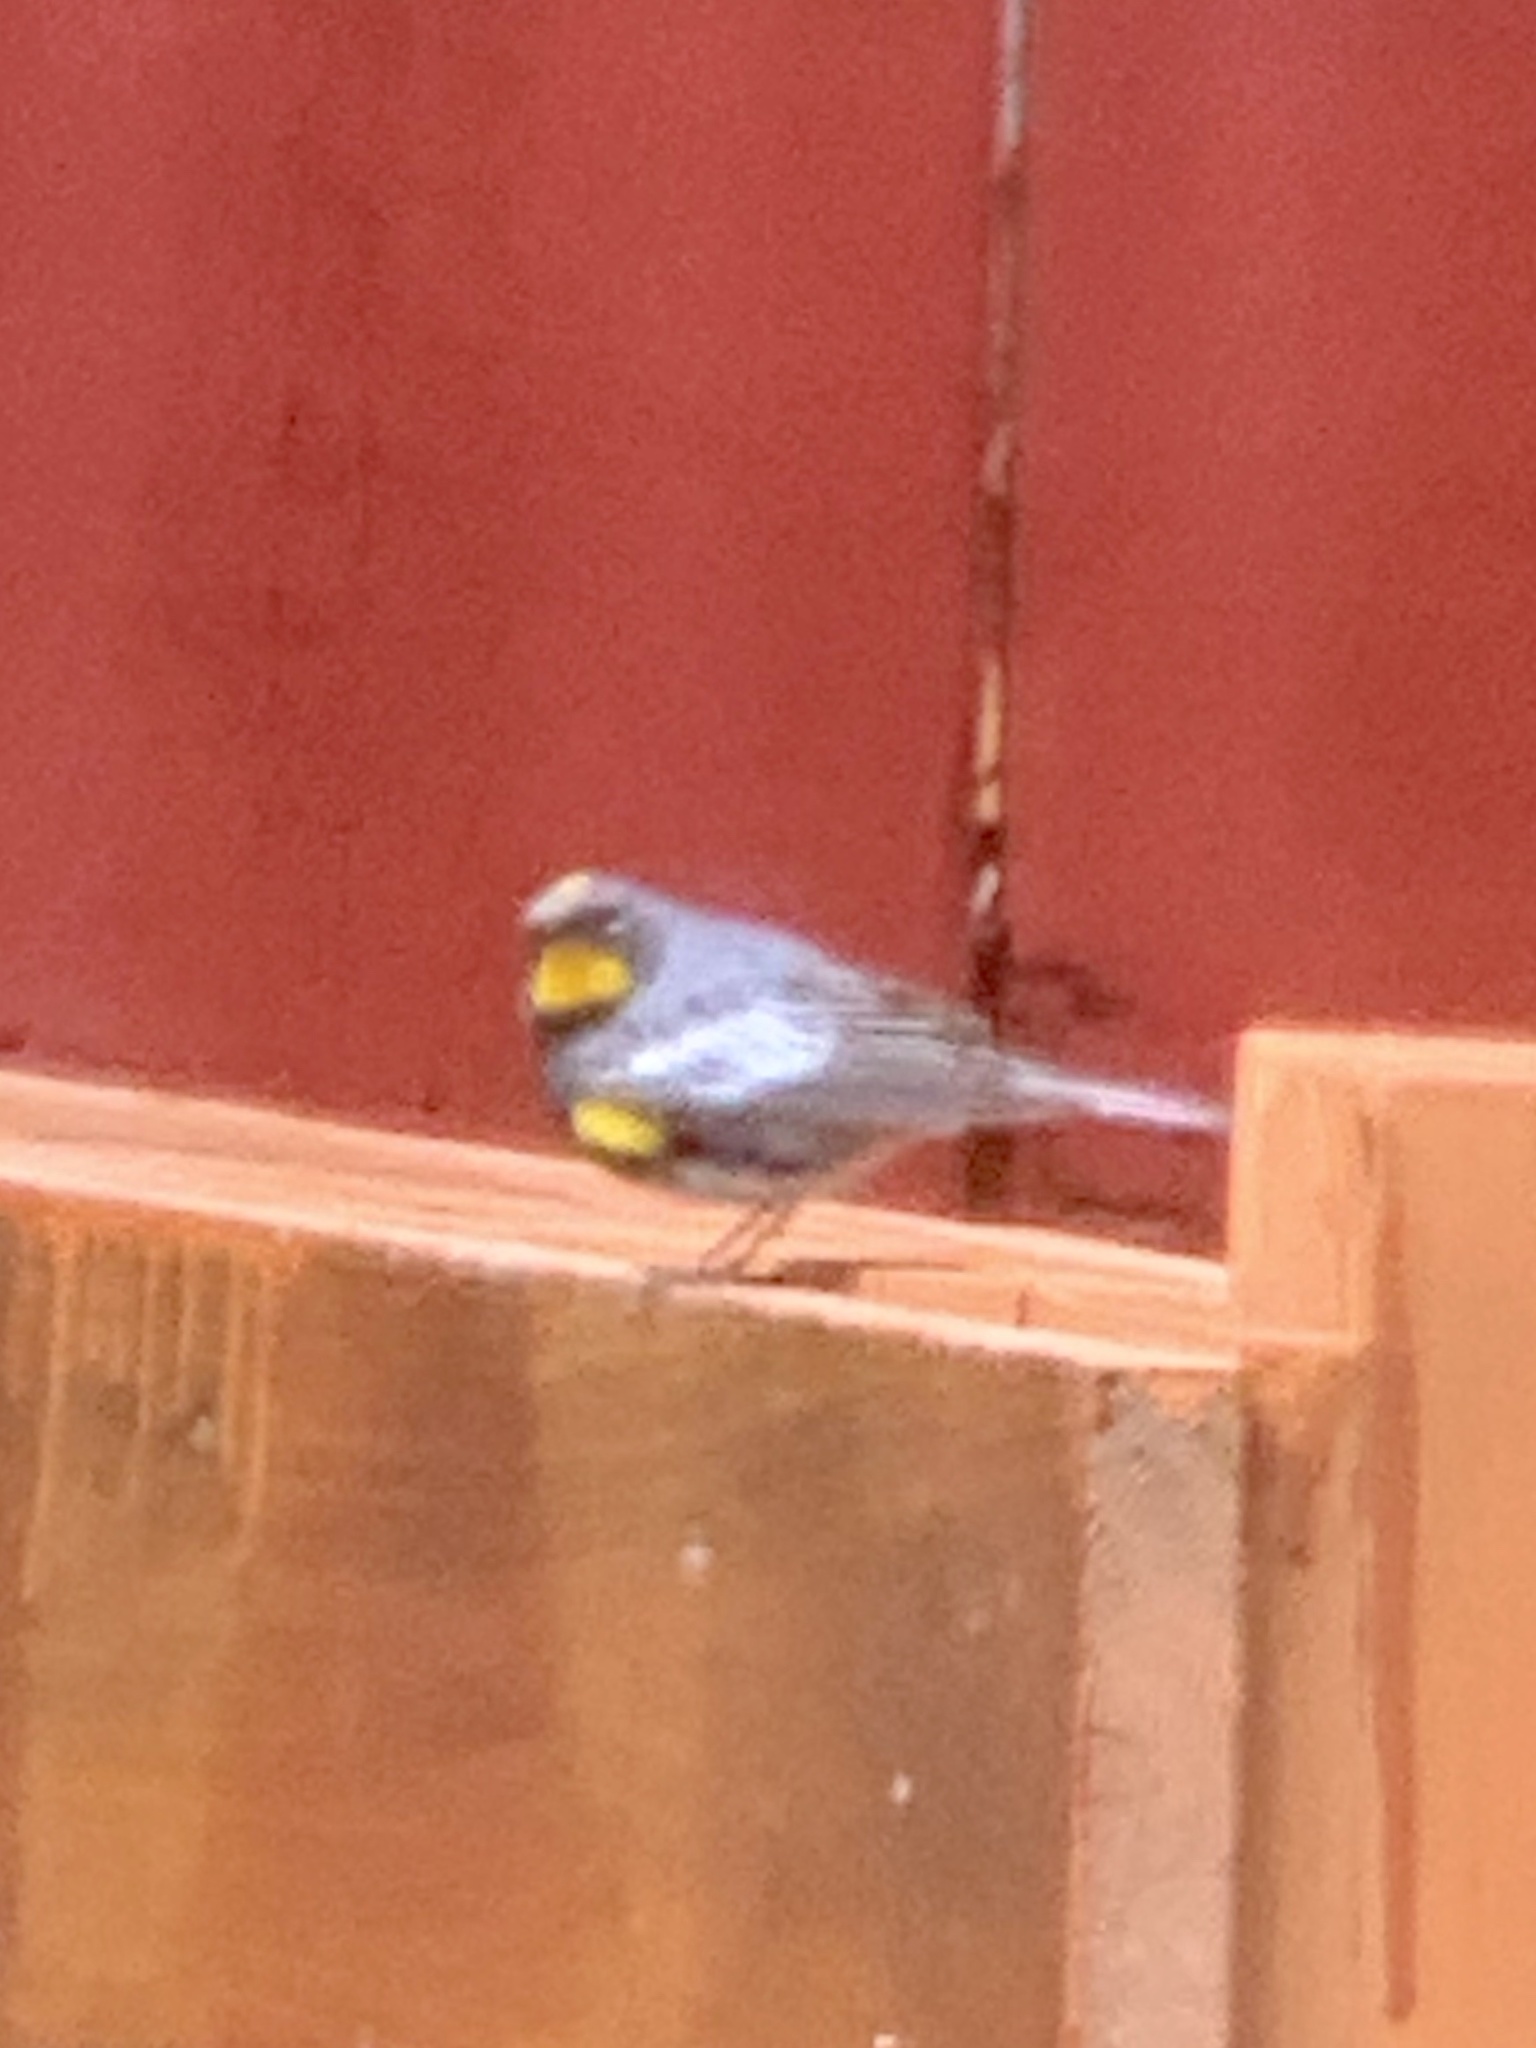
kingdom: Animalia
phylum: Chordata
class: Aves
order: Passeriformes
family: Parulidae
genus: Setophaga
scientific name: Setophaga coronata
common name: Myrtle warbler
